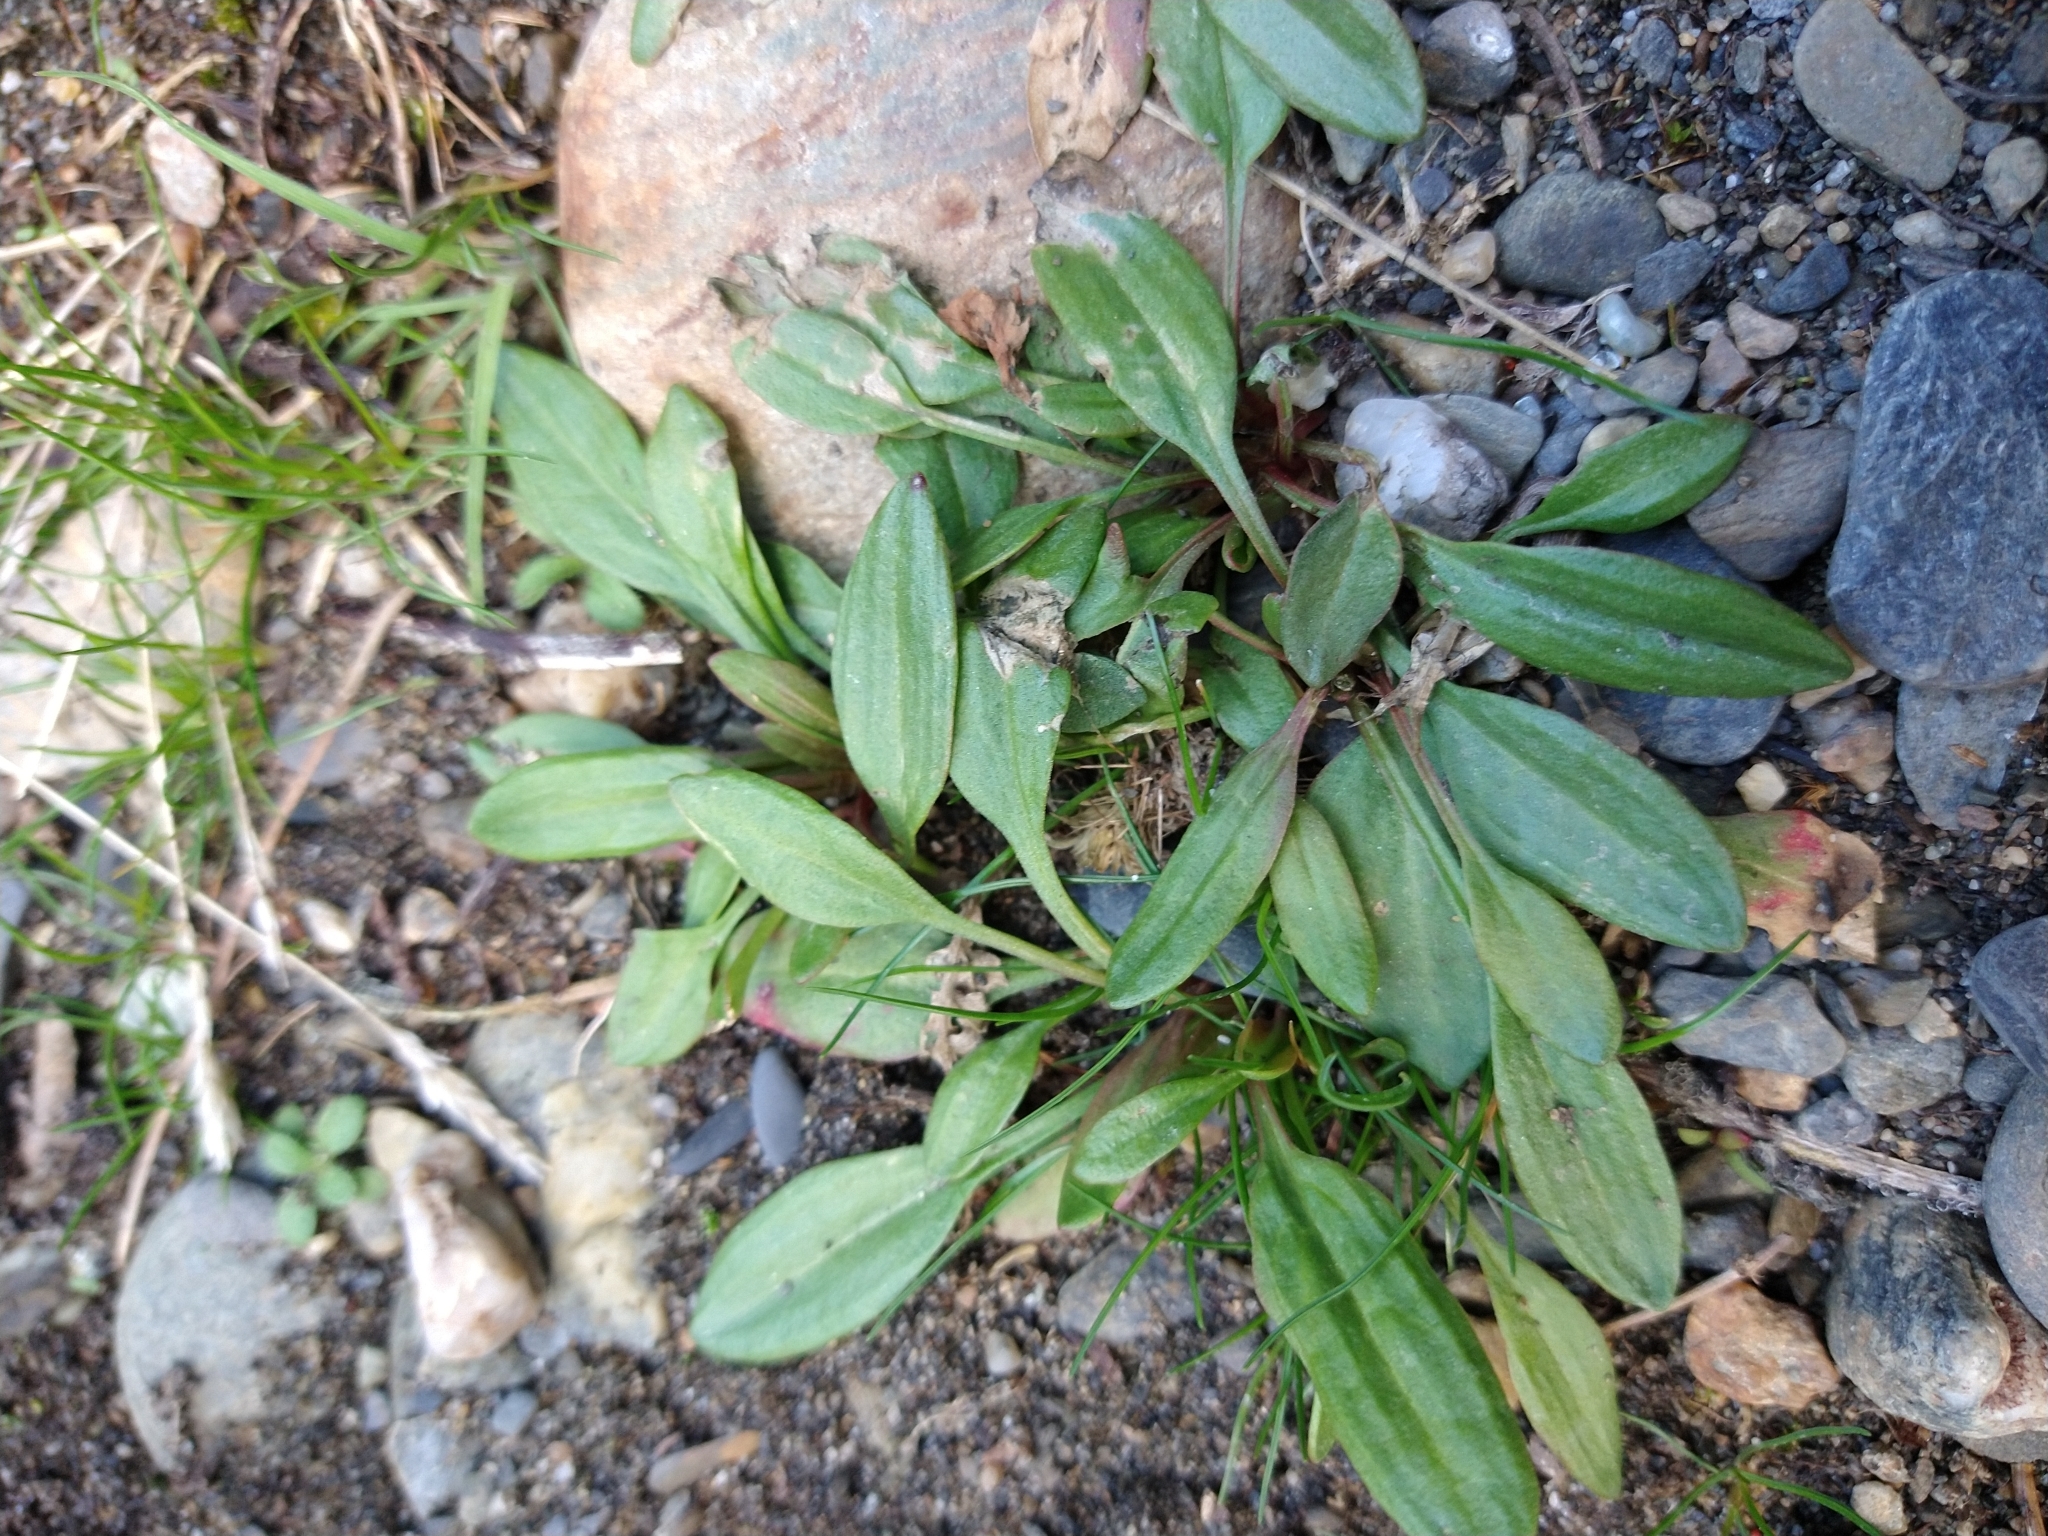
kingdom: Plantae
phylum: Tracheophyta
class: Magnoliopsida
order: Caryophyllales
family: Polygonaceae
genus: Rumex
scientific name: Rumex acetosella
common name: Common sheep sorrel
